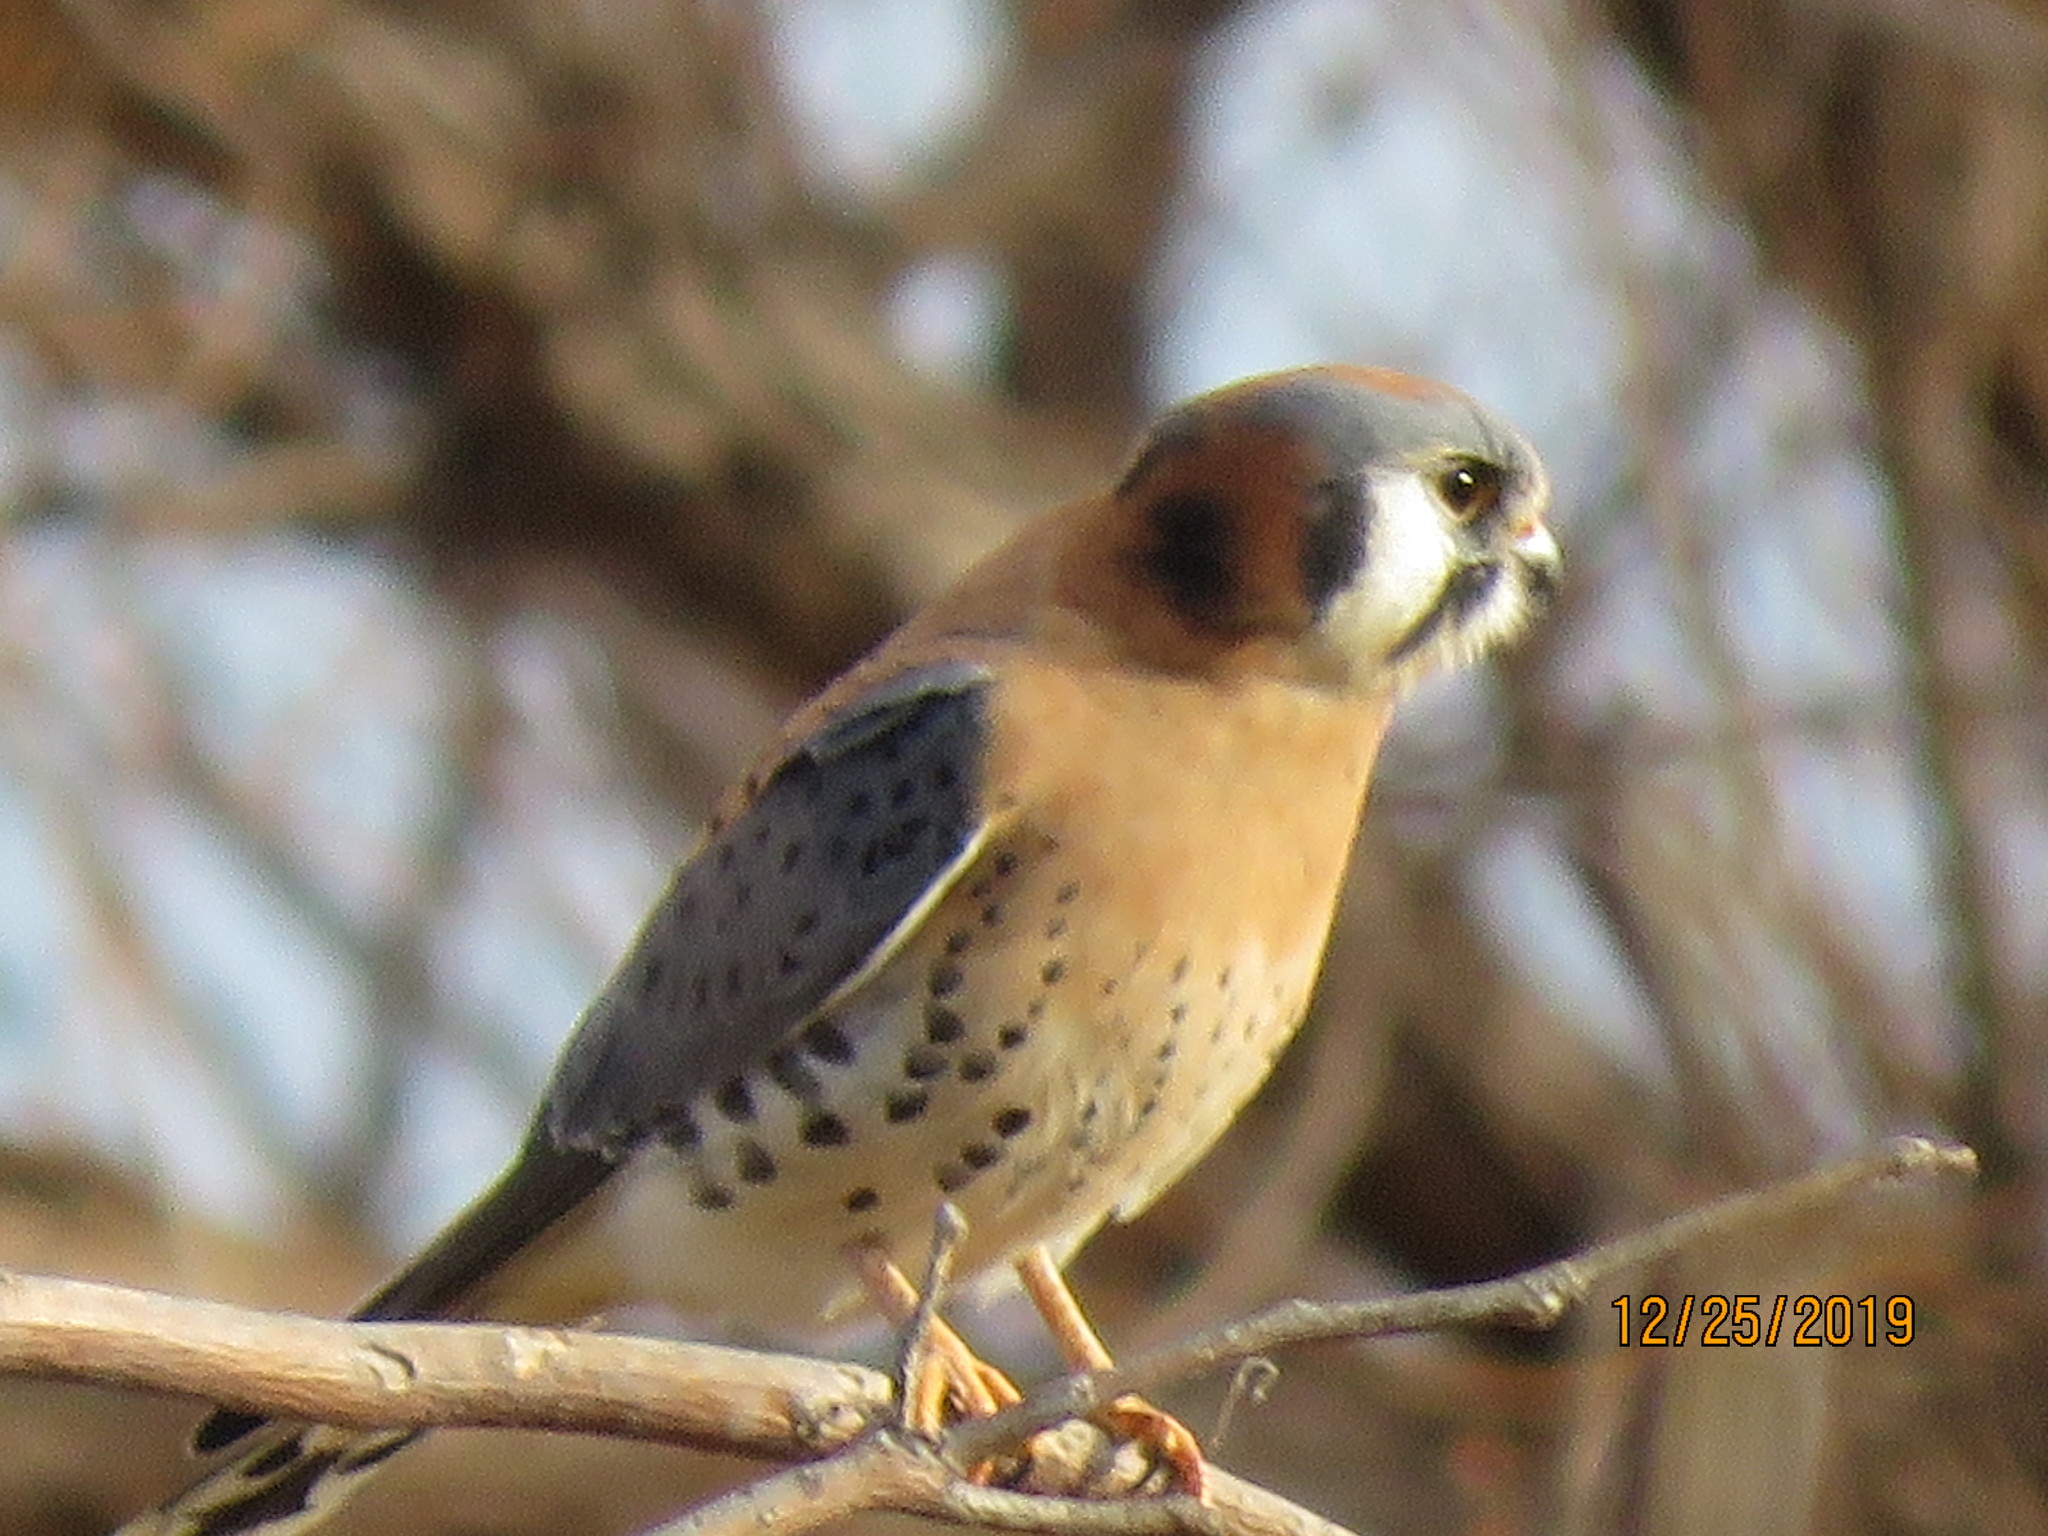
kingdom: Animalia
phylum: Chordata
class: Aves
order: Falconiformes
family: Falconidae
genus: Falco
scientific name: Falco sparverius
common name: American kestrel
